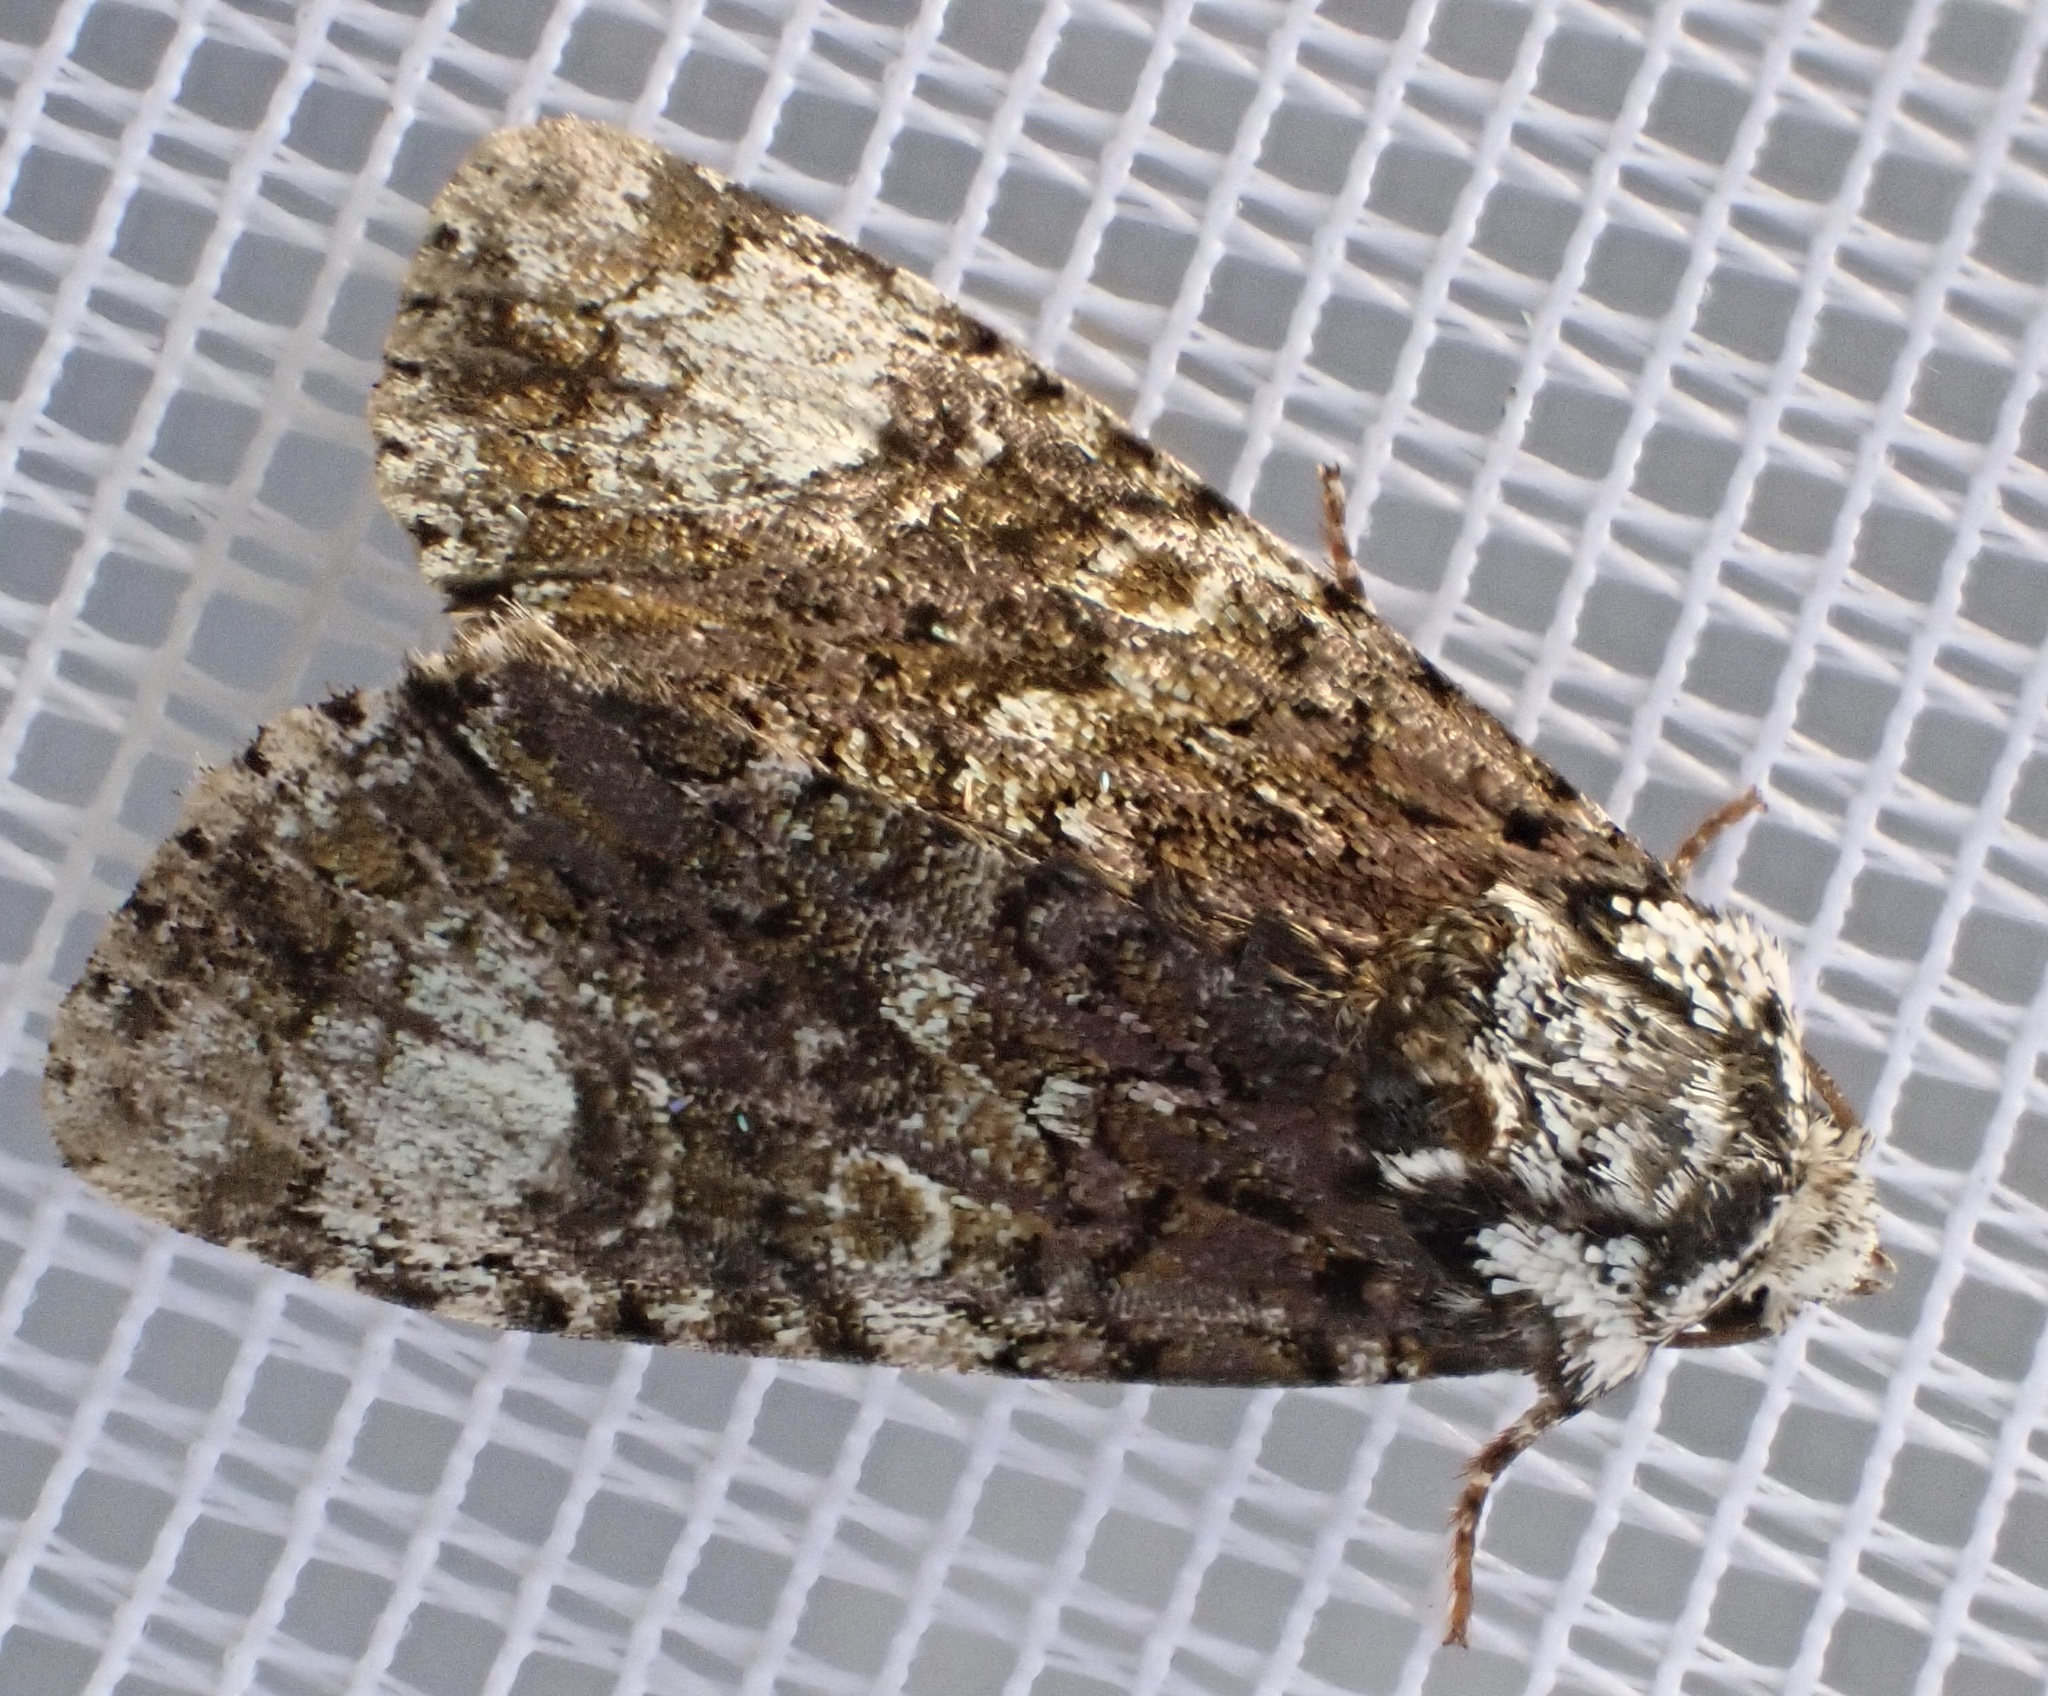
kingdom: Animalia
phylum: Arthropoda
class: Insecta
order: Lepidoptera
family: Noctuidae
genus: Craniophora
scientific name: Craniophora ligustri
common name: Coronet
